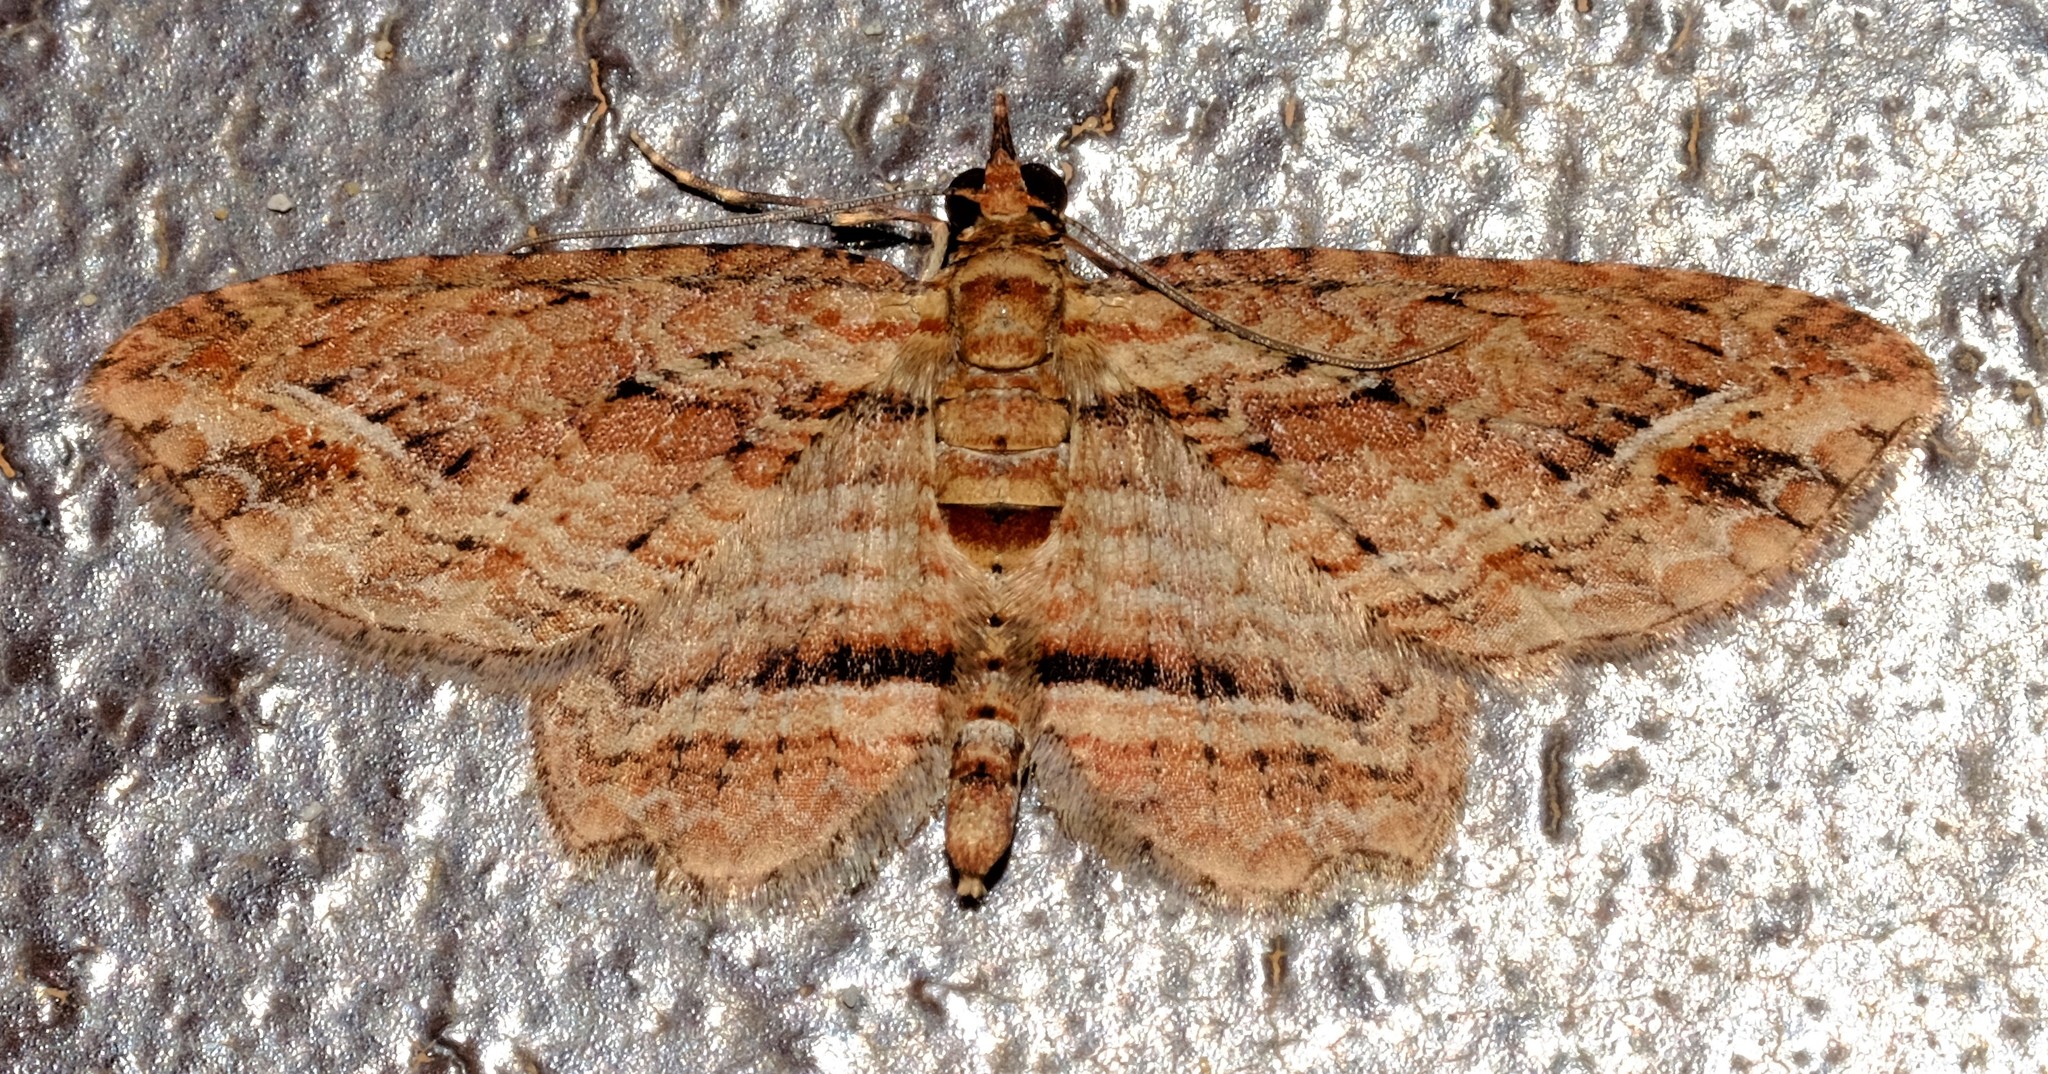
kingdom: Animalia
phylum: Arthropoda
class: Insecta
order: Lepidoptera
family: Geometridae
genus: Chloroclystis
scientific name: Chloroclystis filata
